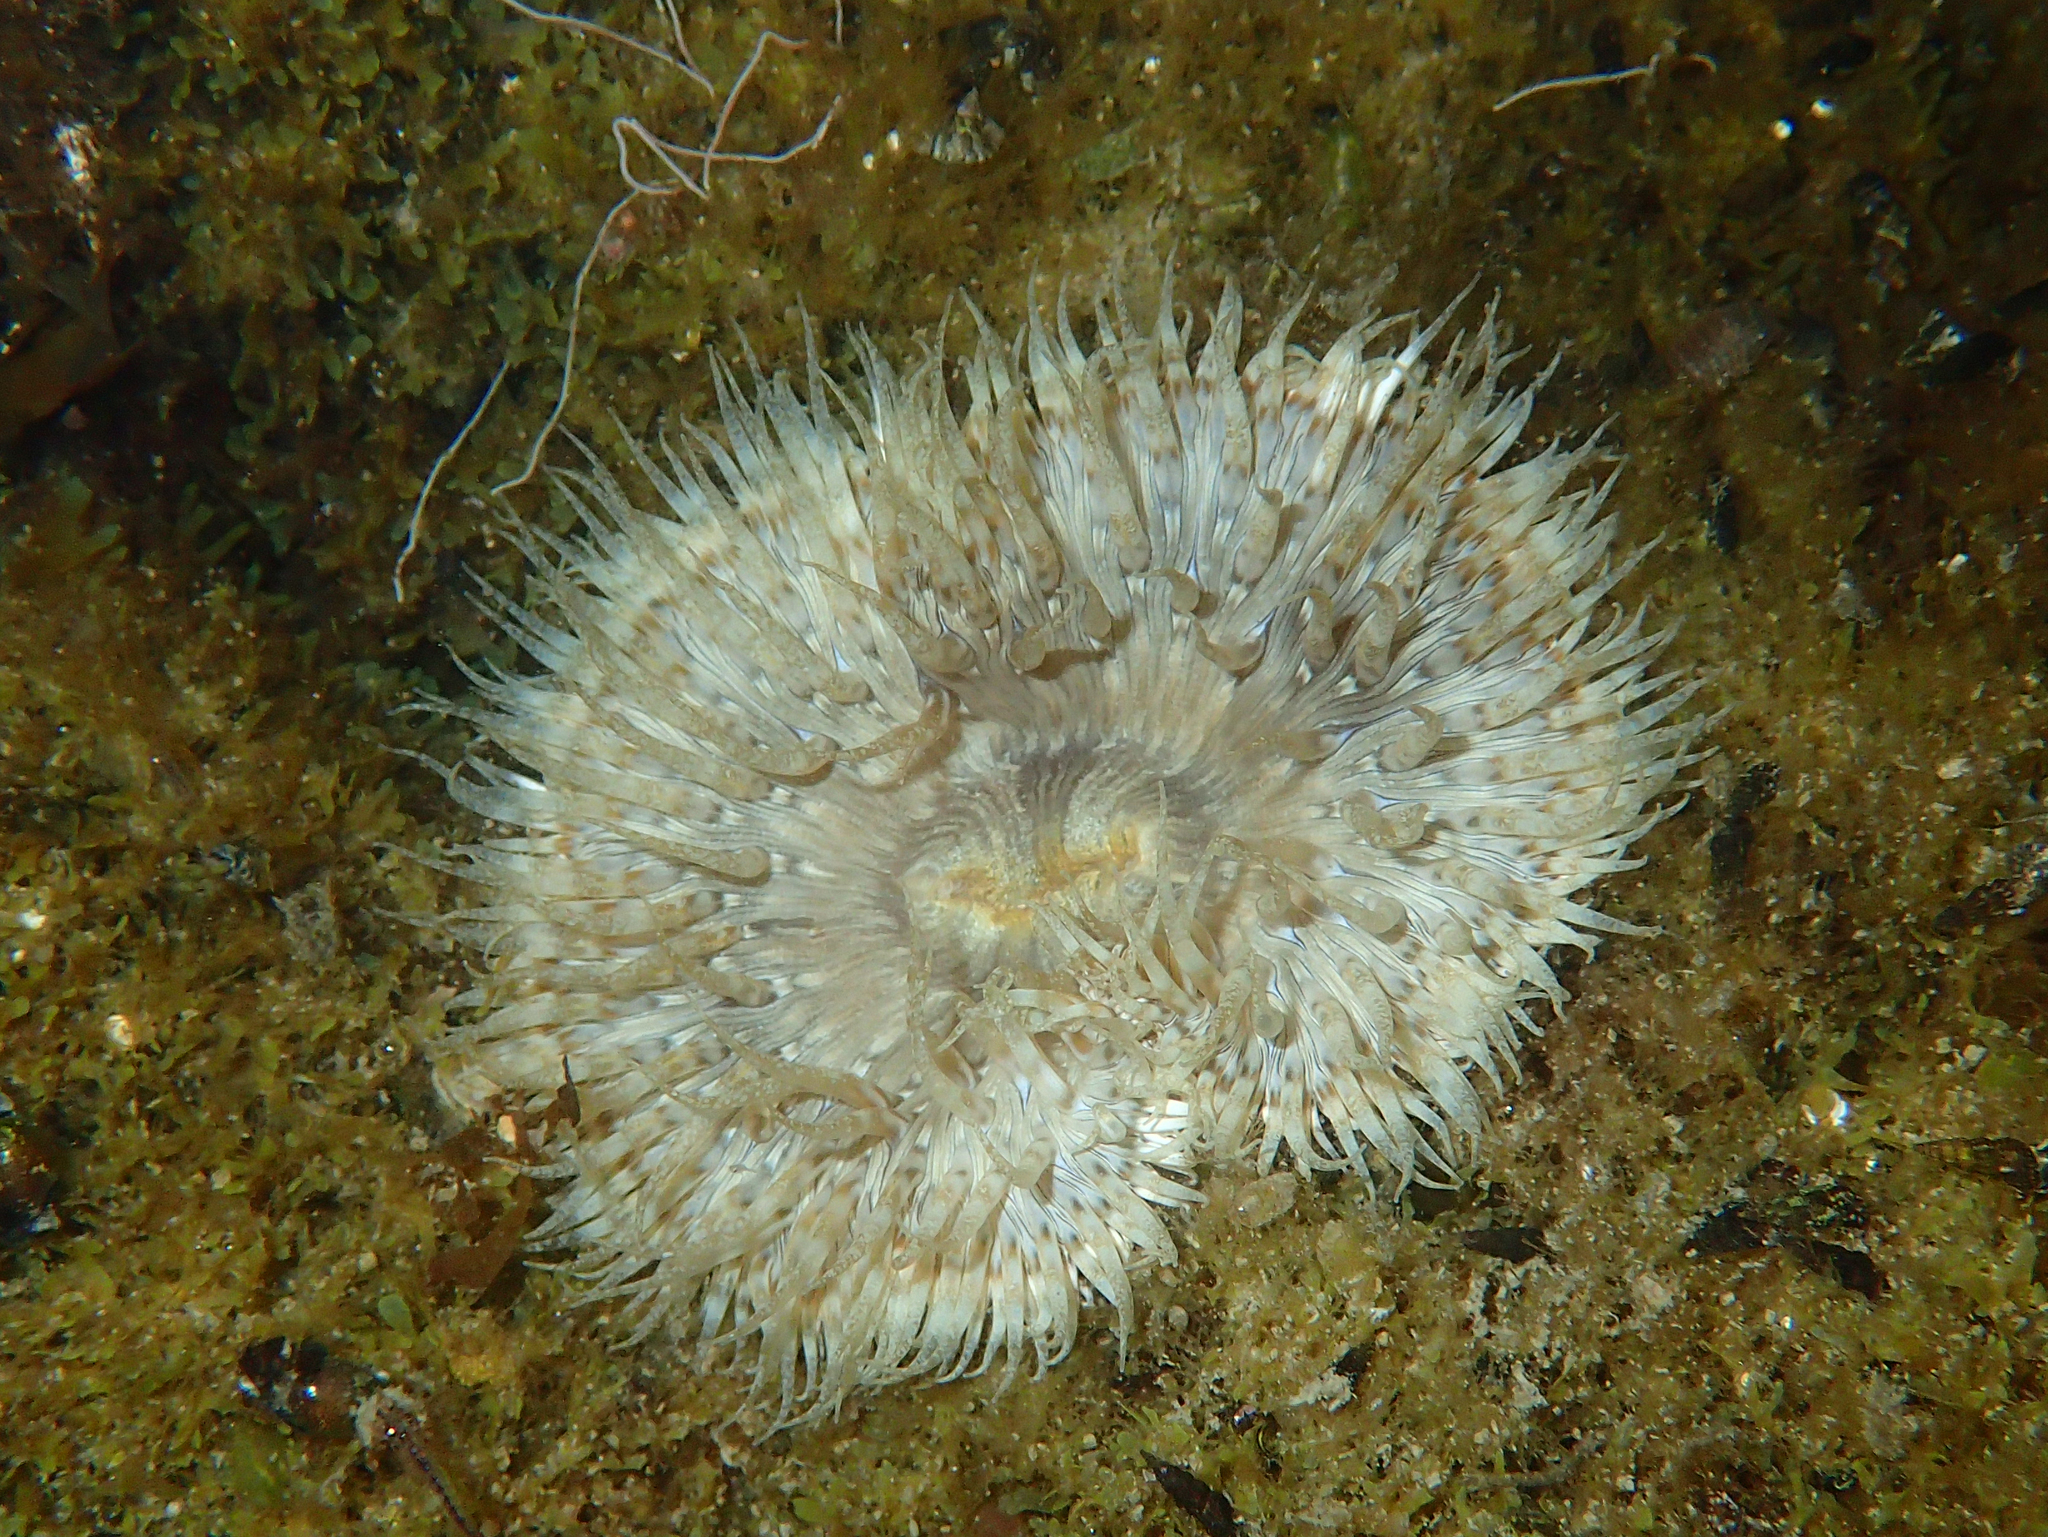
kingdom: Animalia
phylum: Cnidaria
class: Anthozoa
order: Actiniaria
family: Sagartiidae
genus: Cereus
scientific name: Cereus pedunculatus
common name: Daisy anemone
